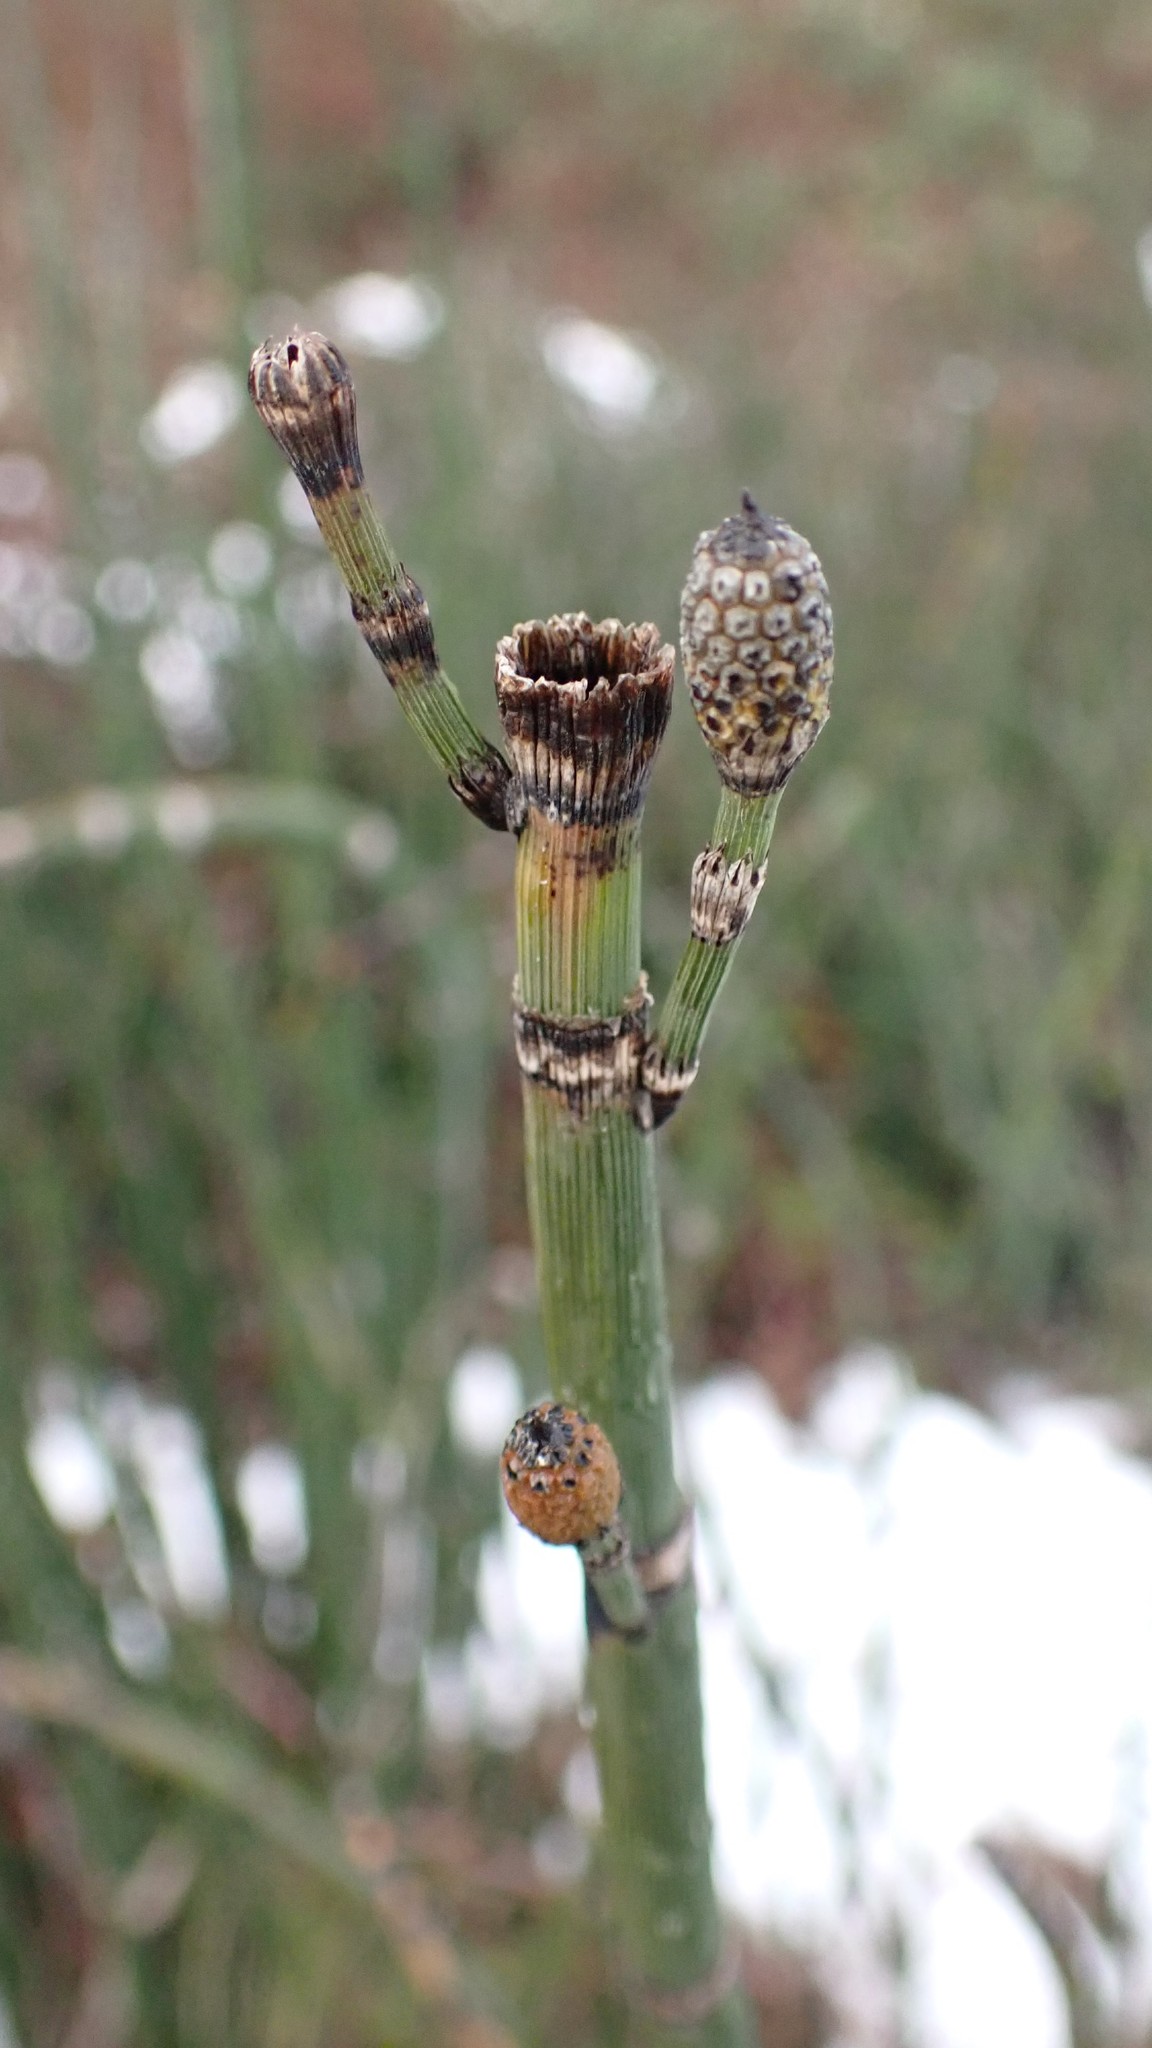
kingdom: Plantae
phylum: Tracheophyta
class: Polypodiopsida
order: Equisetales
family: Equisetaceae
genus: Equisetum
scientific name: Equisetum praealtum
